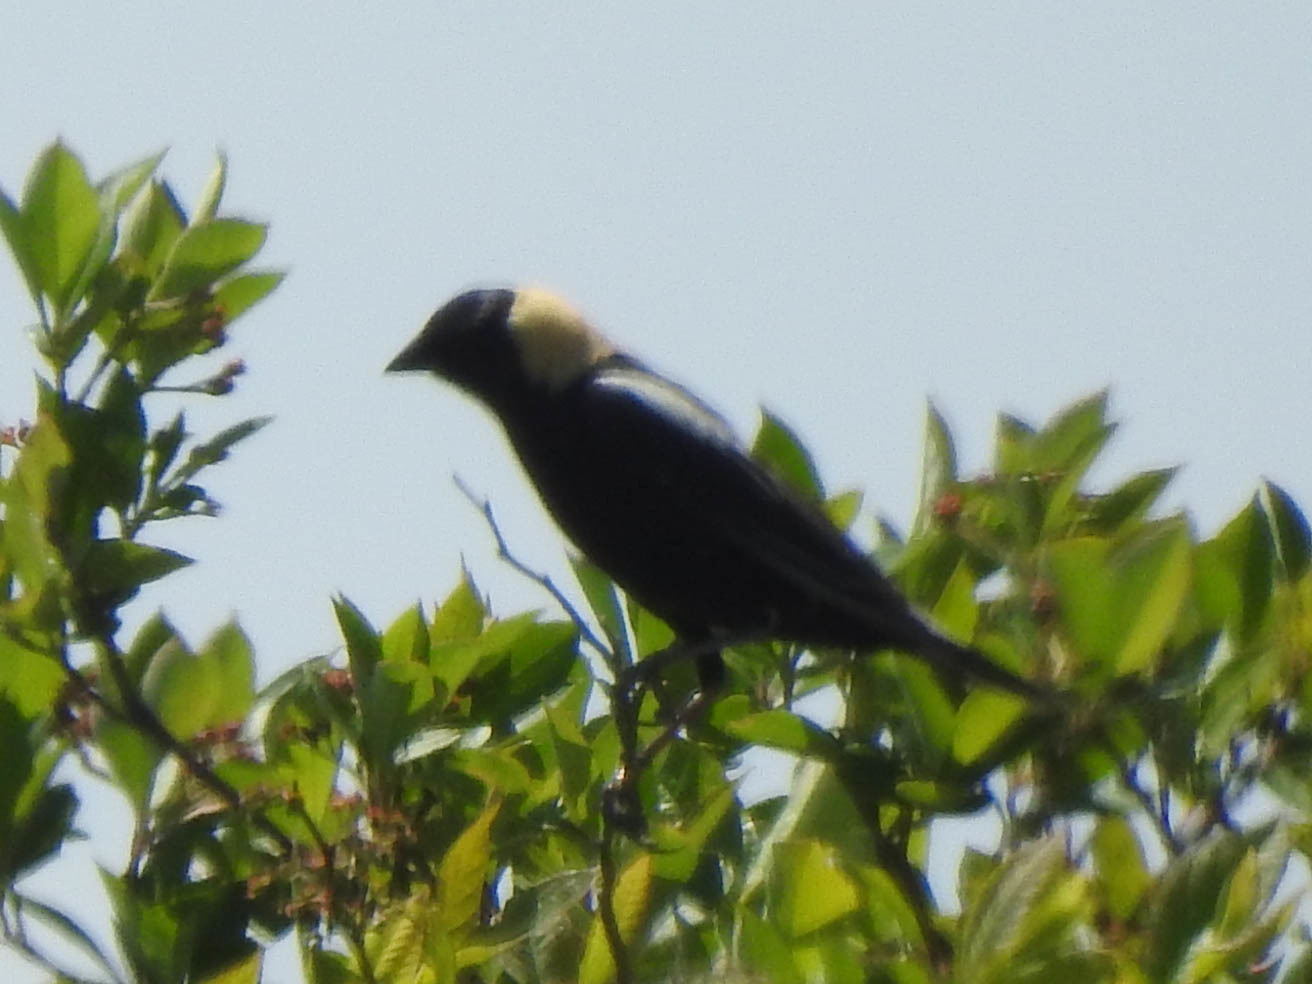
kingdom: Animalia
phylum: Chordata
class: Aves
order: Passeriformes
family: Icteridae
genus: Dolichonyx
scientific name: Dolichonyx oryzivorus
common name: Bobolink
